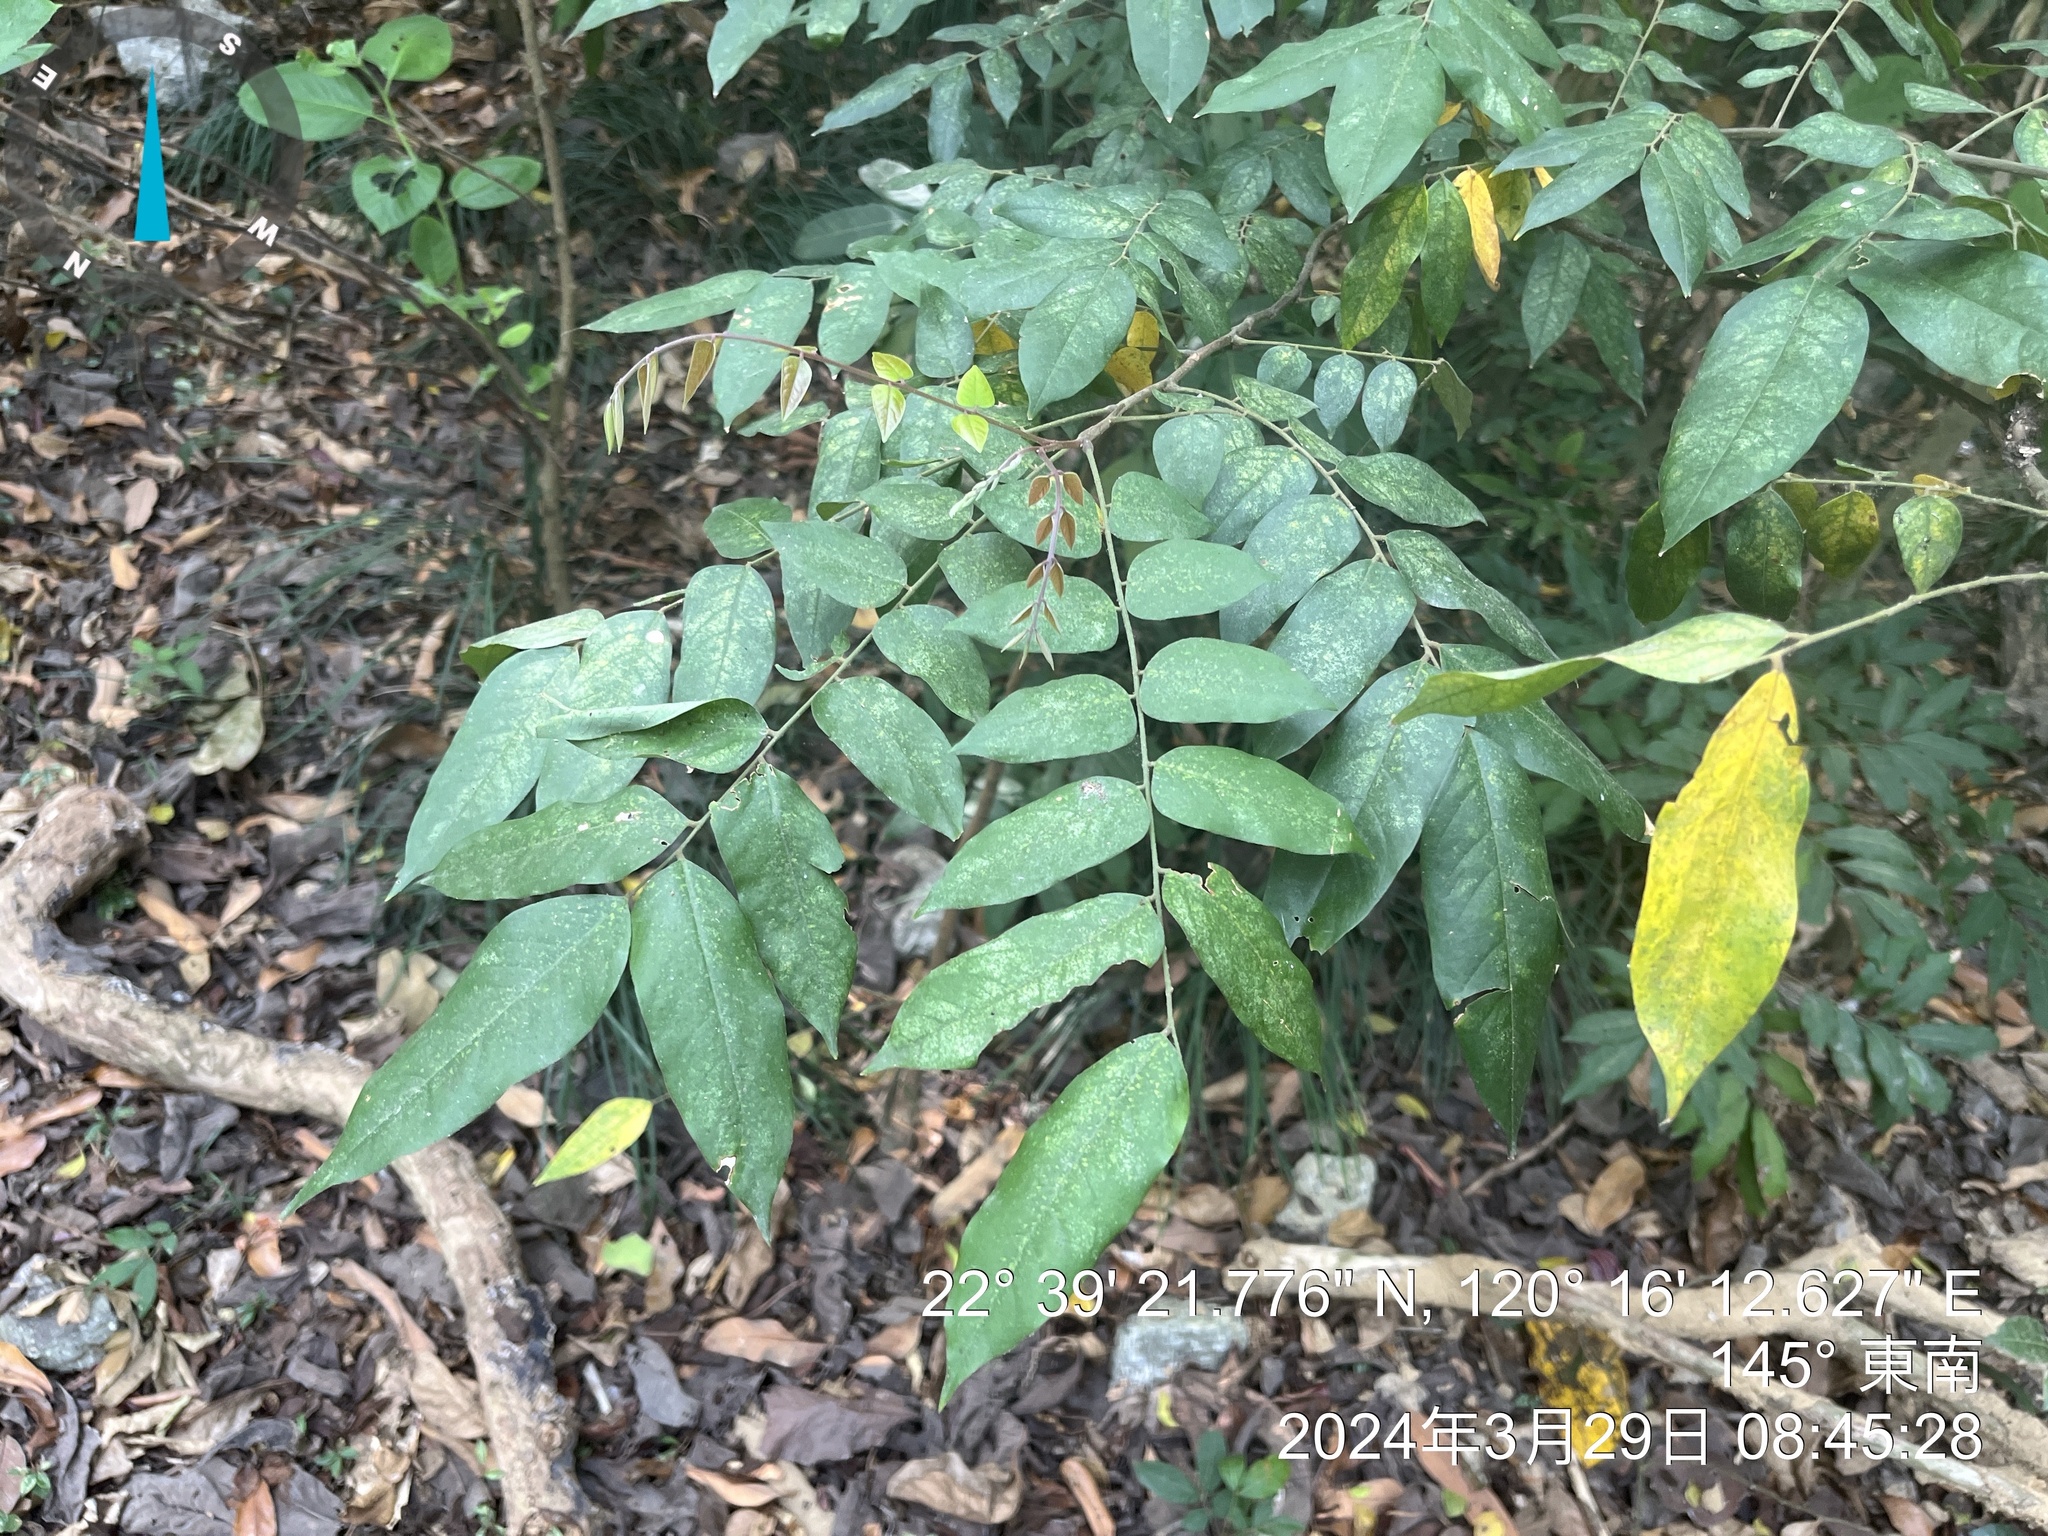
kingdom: Plantae
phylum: Tracheophyta
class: Magnoliopsida
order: Oxalidales
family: Oxalidaceae
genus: Averrhoa
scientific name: Averrhoa carambola
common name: Blimbing
